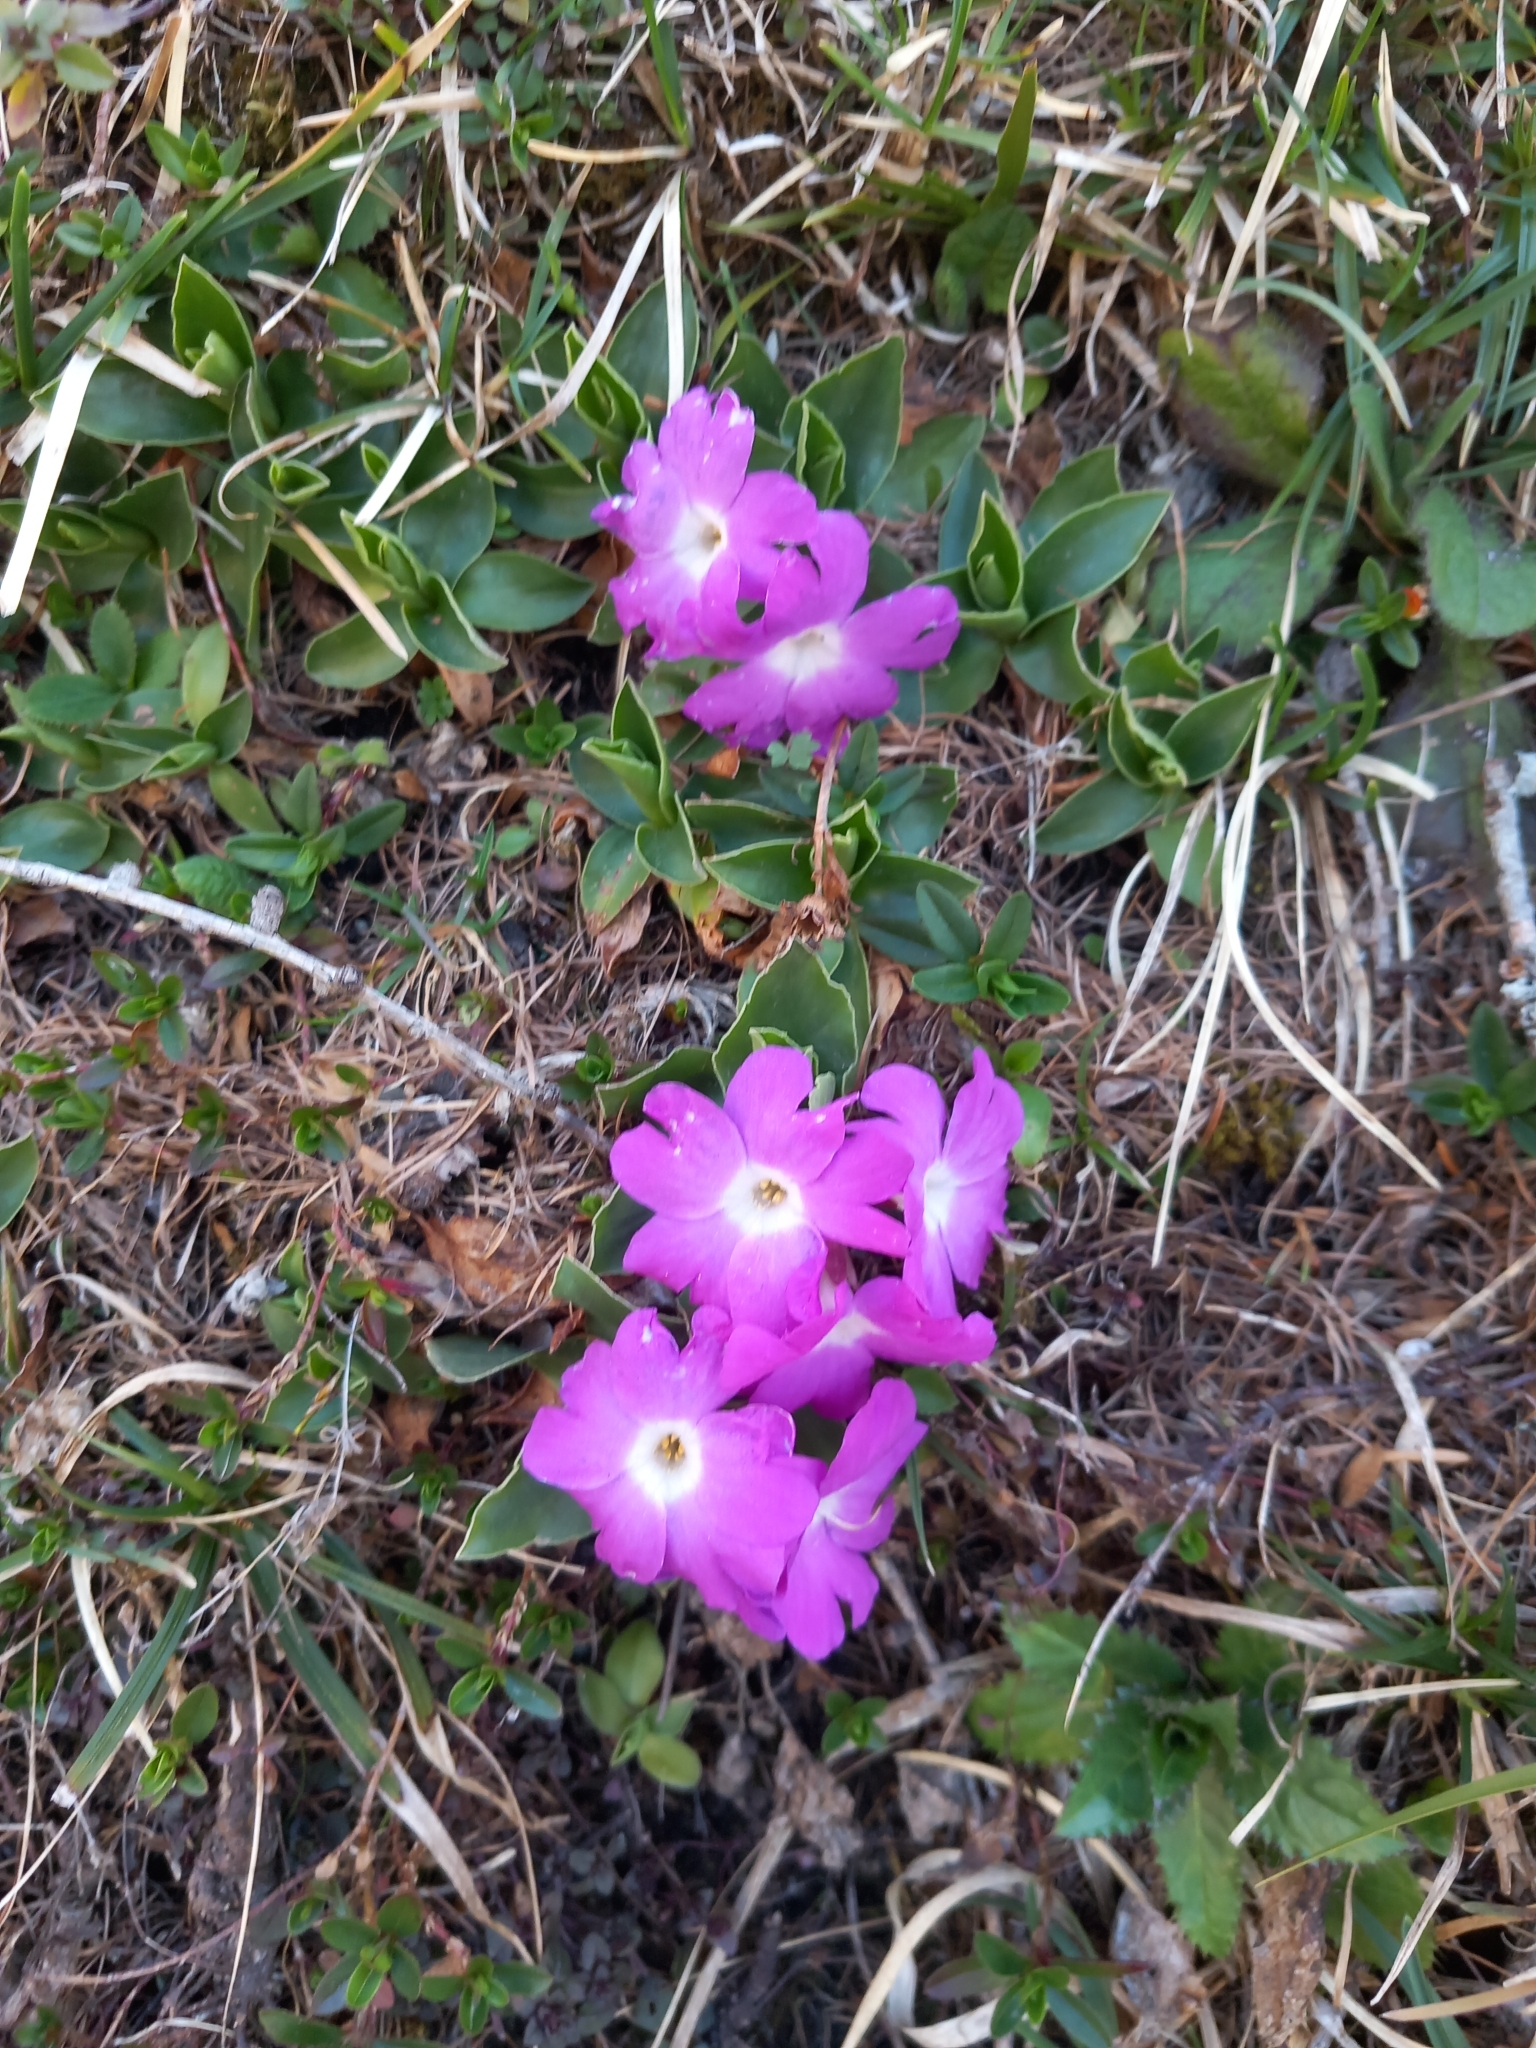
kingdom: Plantae
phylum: Tracheophyta
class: Magnoliopsida
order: Ericales
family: Primulaceae
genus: Primula
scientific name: Primula clusiana
